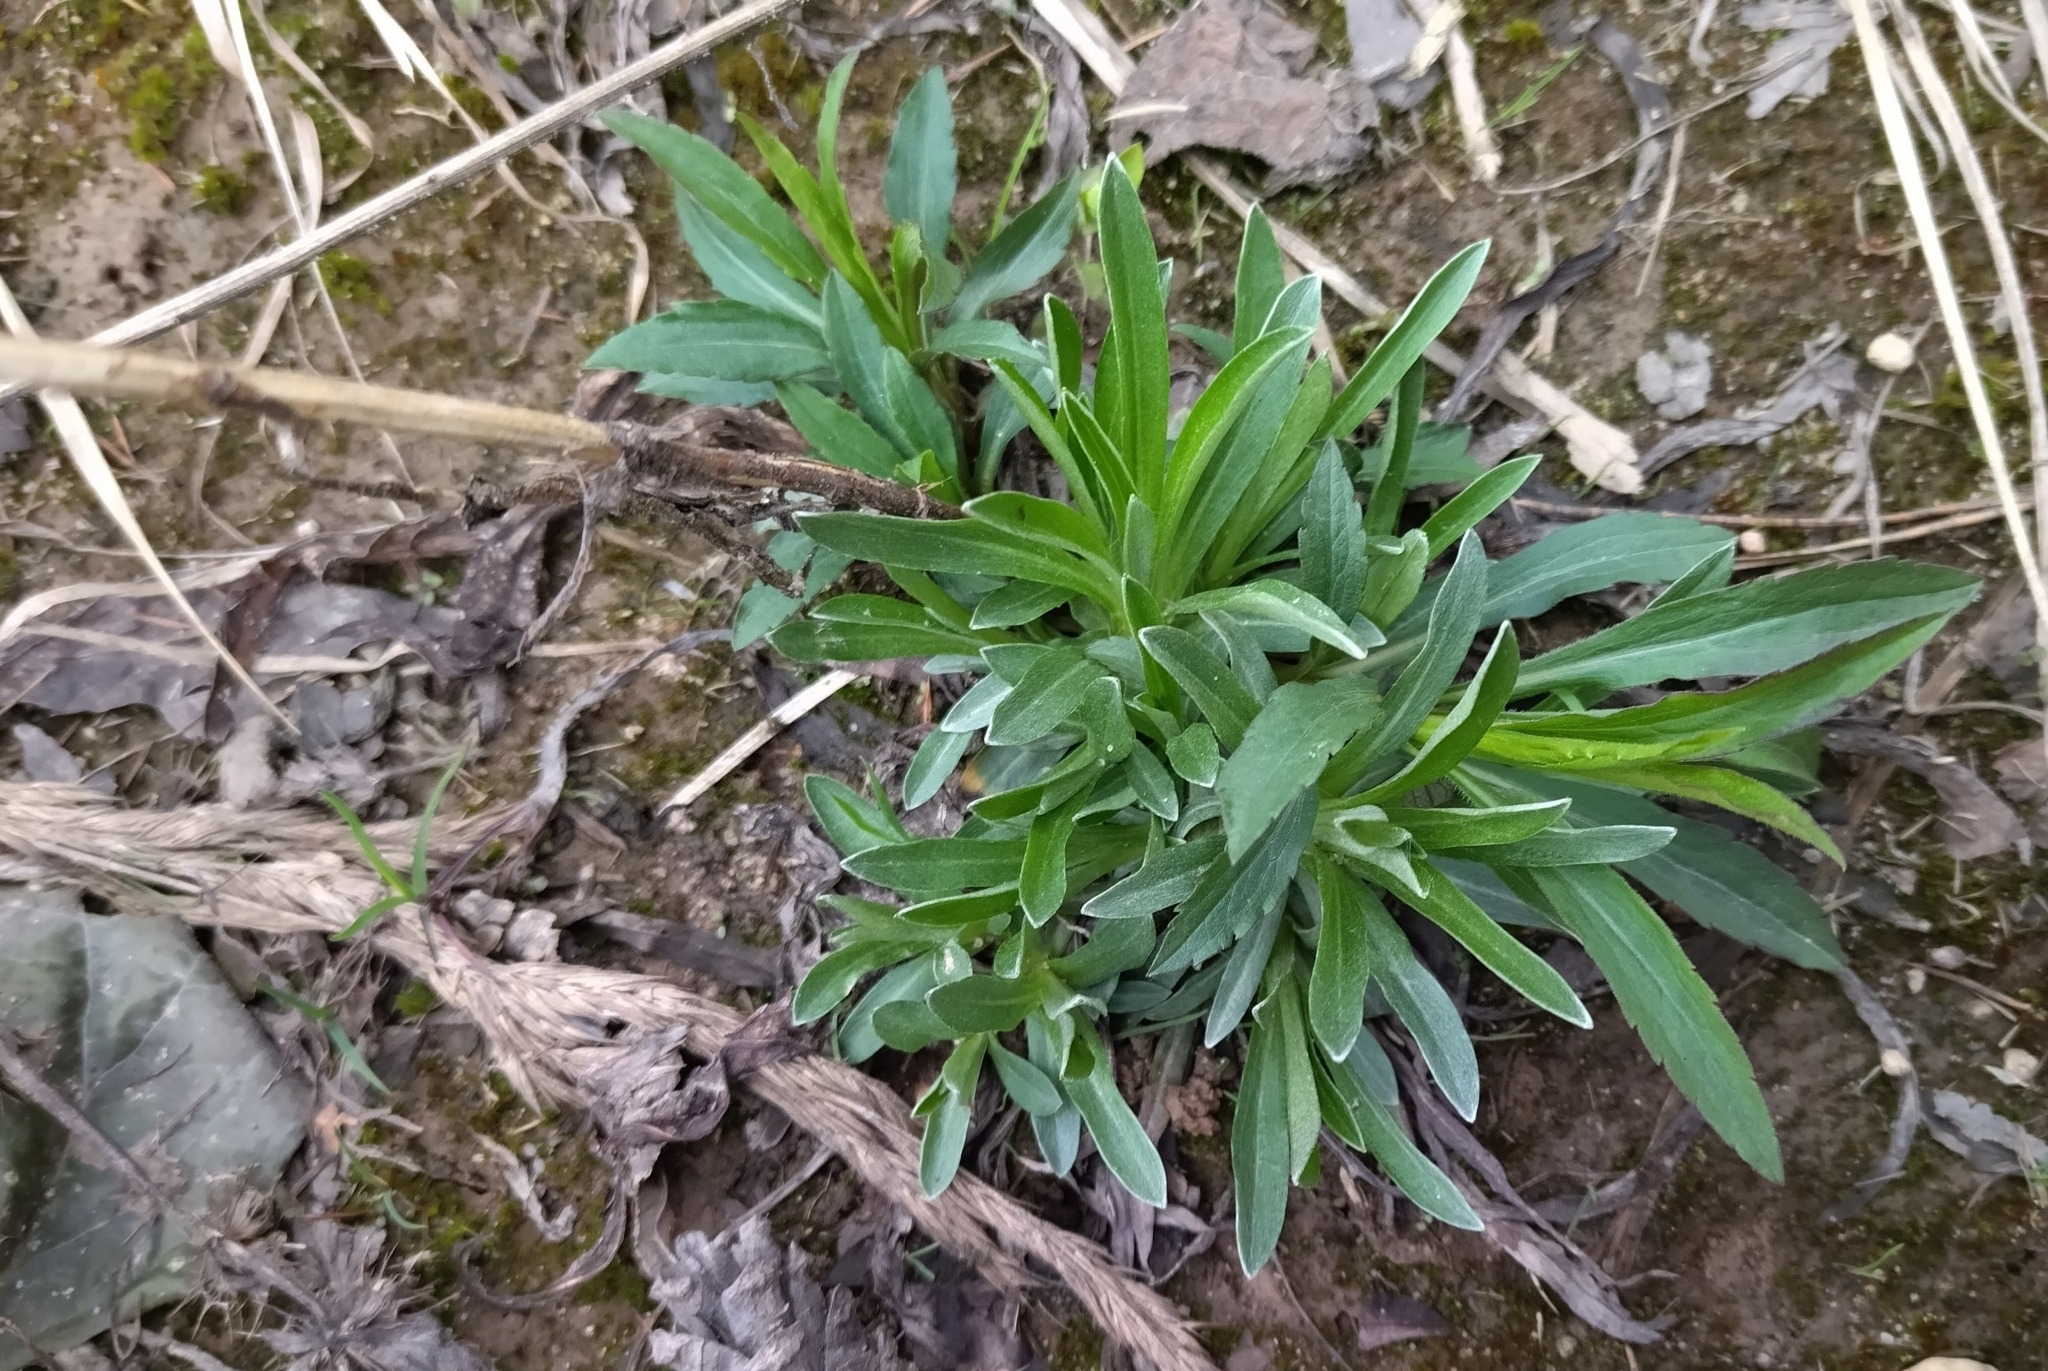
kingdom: Plantae
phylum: Tracheophyta
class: Magnoliopsida
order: Asterales
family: Asteraceae
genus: Omalotheca
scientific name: Omalotheca sylvatica
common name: Heath cudweed
